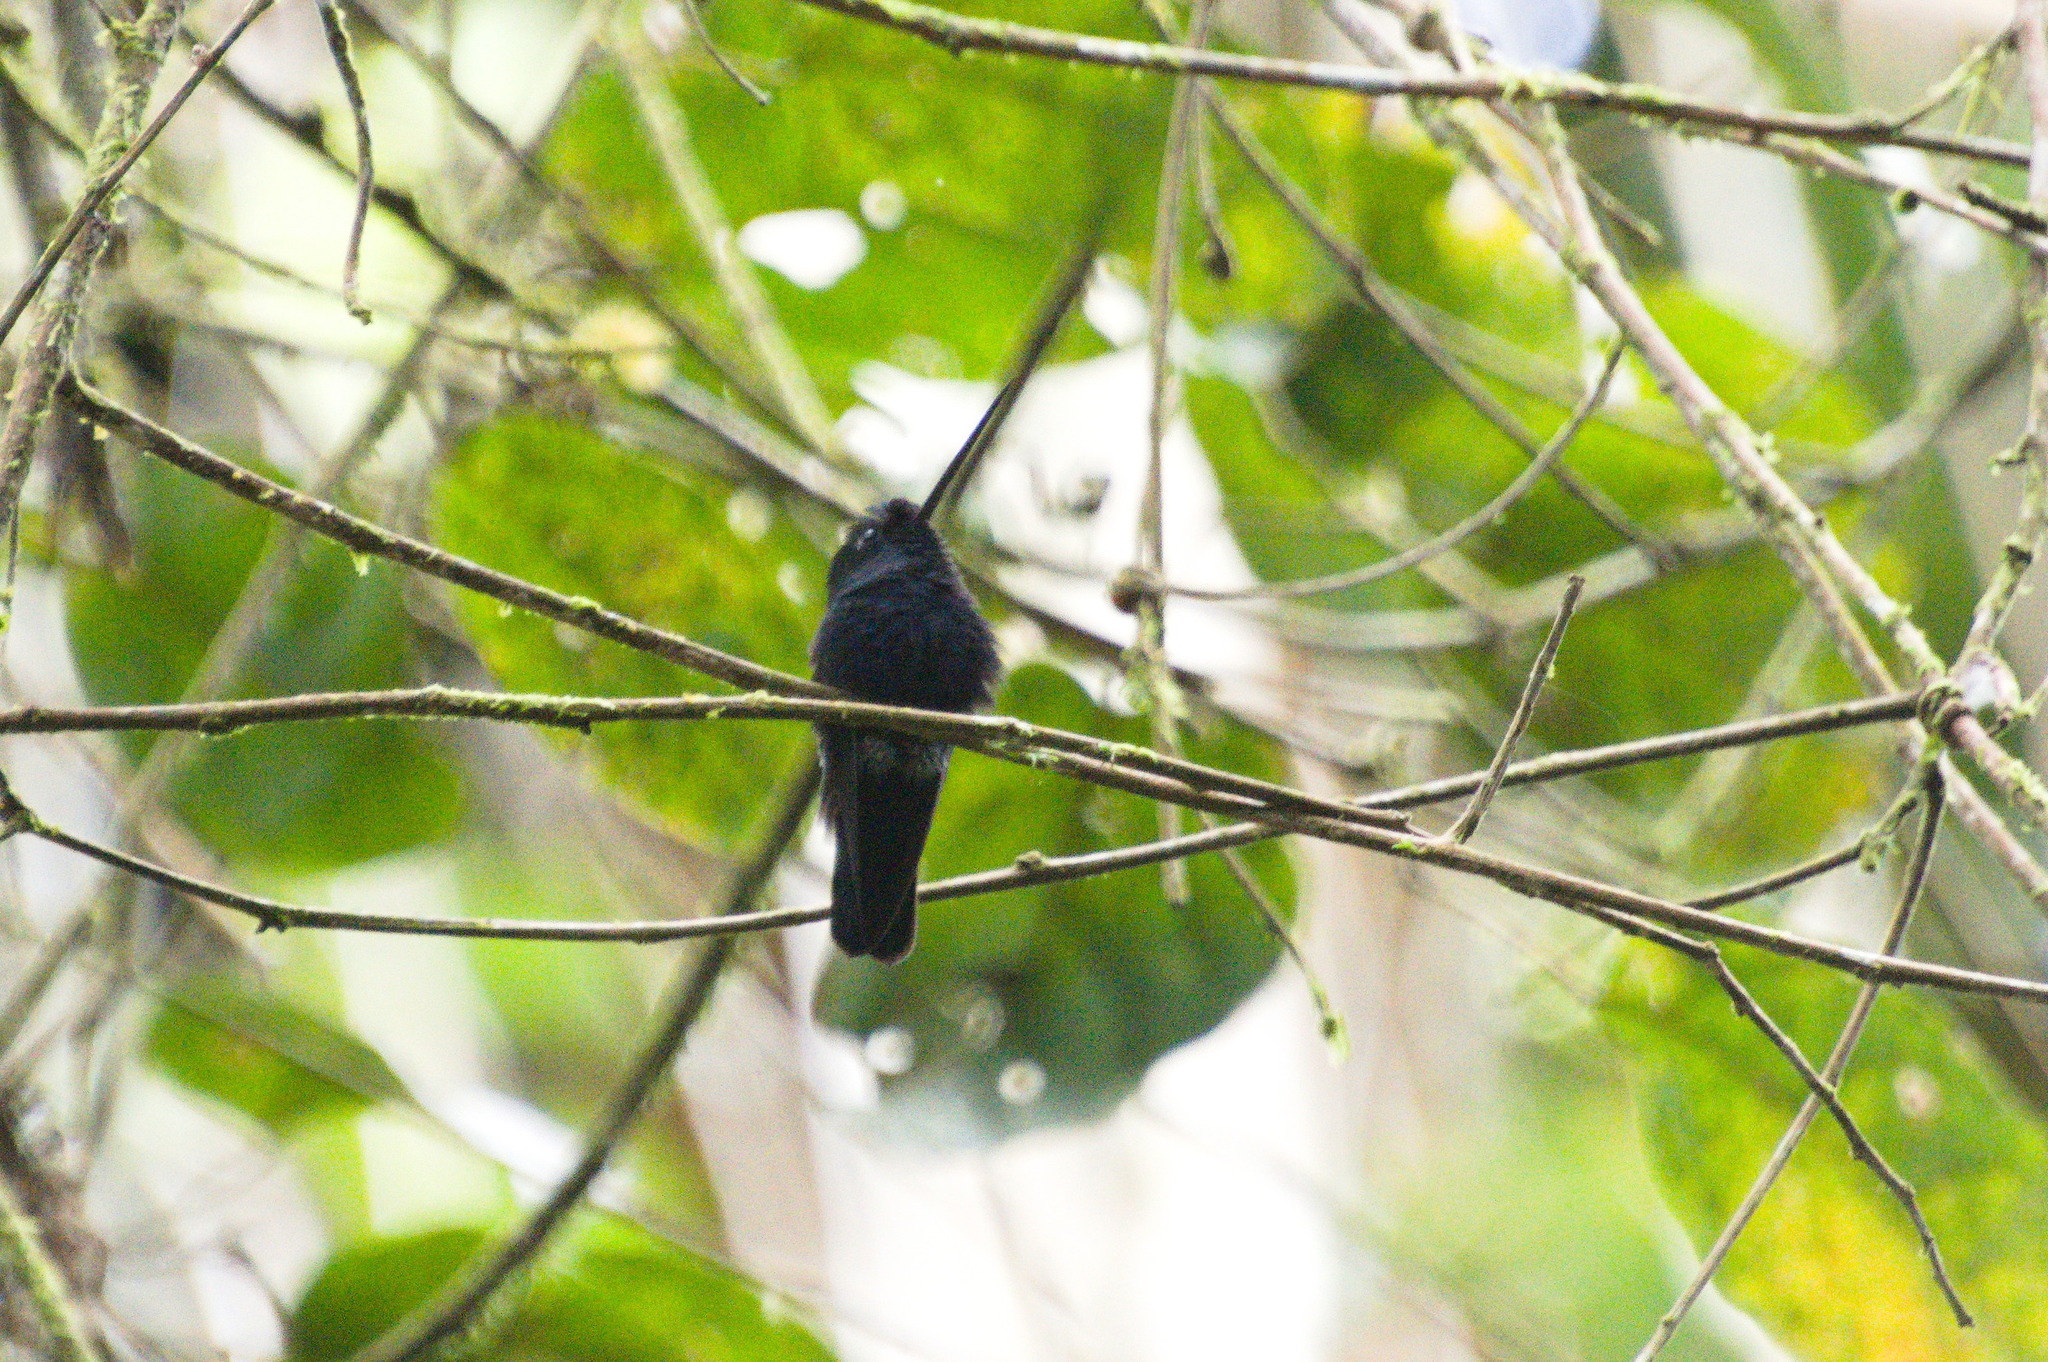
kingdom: Animalia
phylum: Chordata
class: Aves
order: Apodiformes
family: Trochilidae
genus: Doryfera
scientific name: Doryfera johannae
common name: Blue-fronted lancebill
